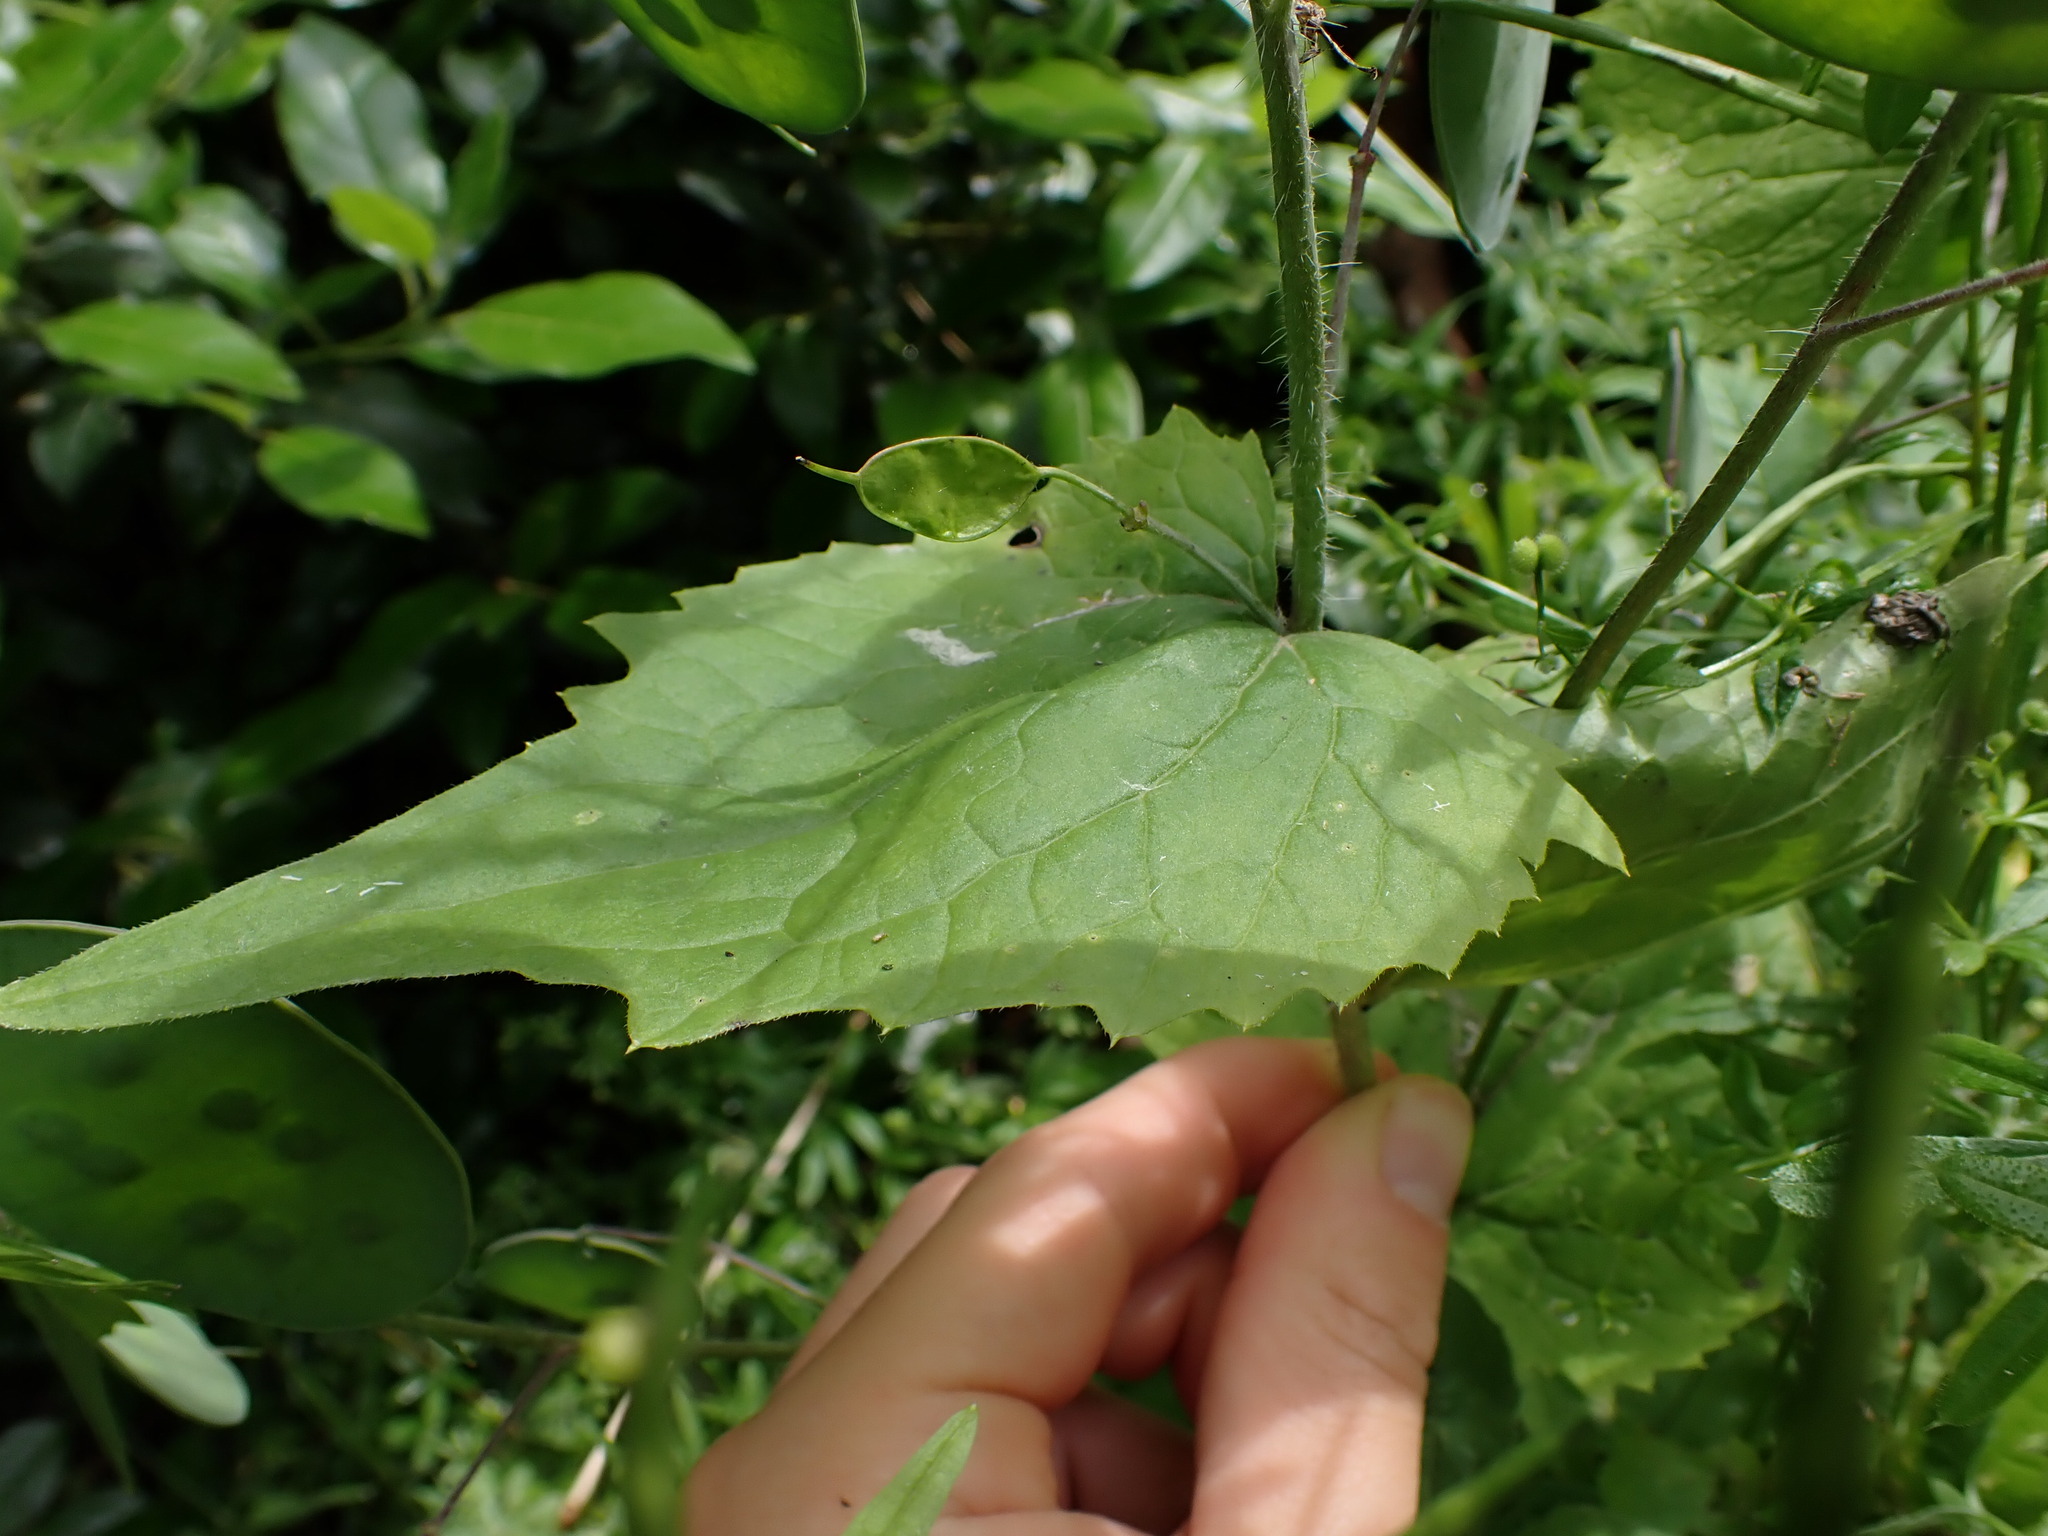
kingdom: Plantae
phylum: Tracheophyta
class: Magnoliopsida
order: Brassicales
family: Brassicaceae
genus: Lunaria
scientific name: Lunaria annua
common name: Honesty
